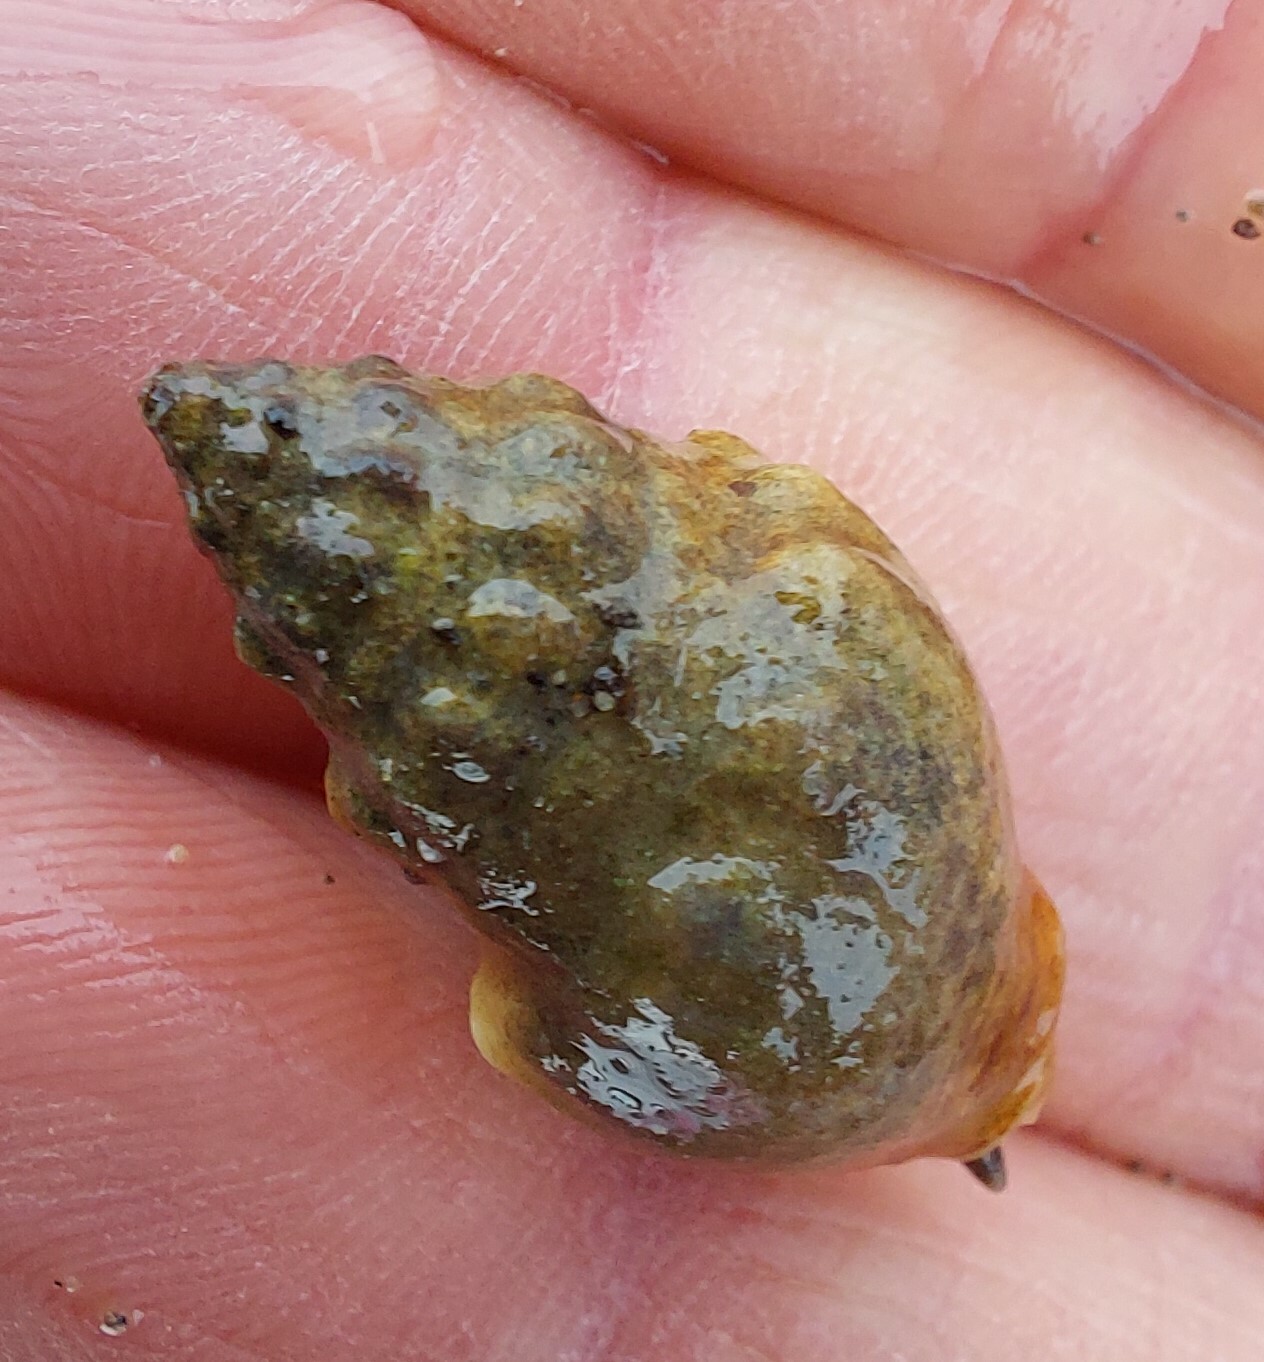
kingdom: Animalia
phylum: Mollusca
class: Gastropoda
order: Neogastropoda
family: Cominellidae
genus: Cominella
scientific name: Cominella glandiformis
